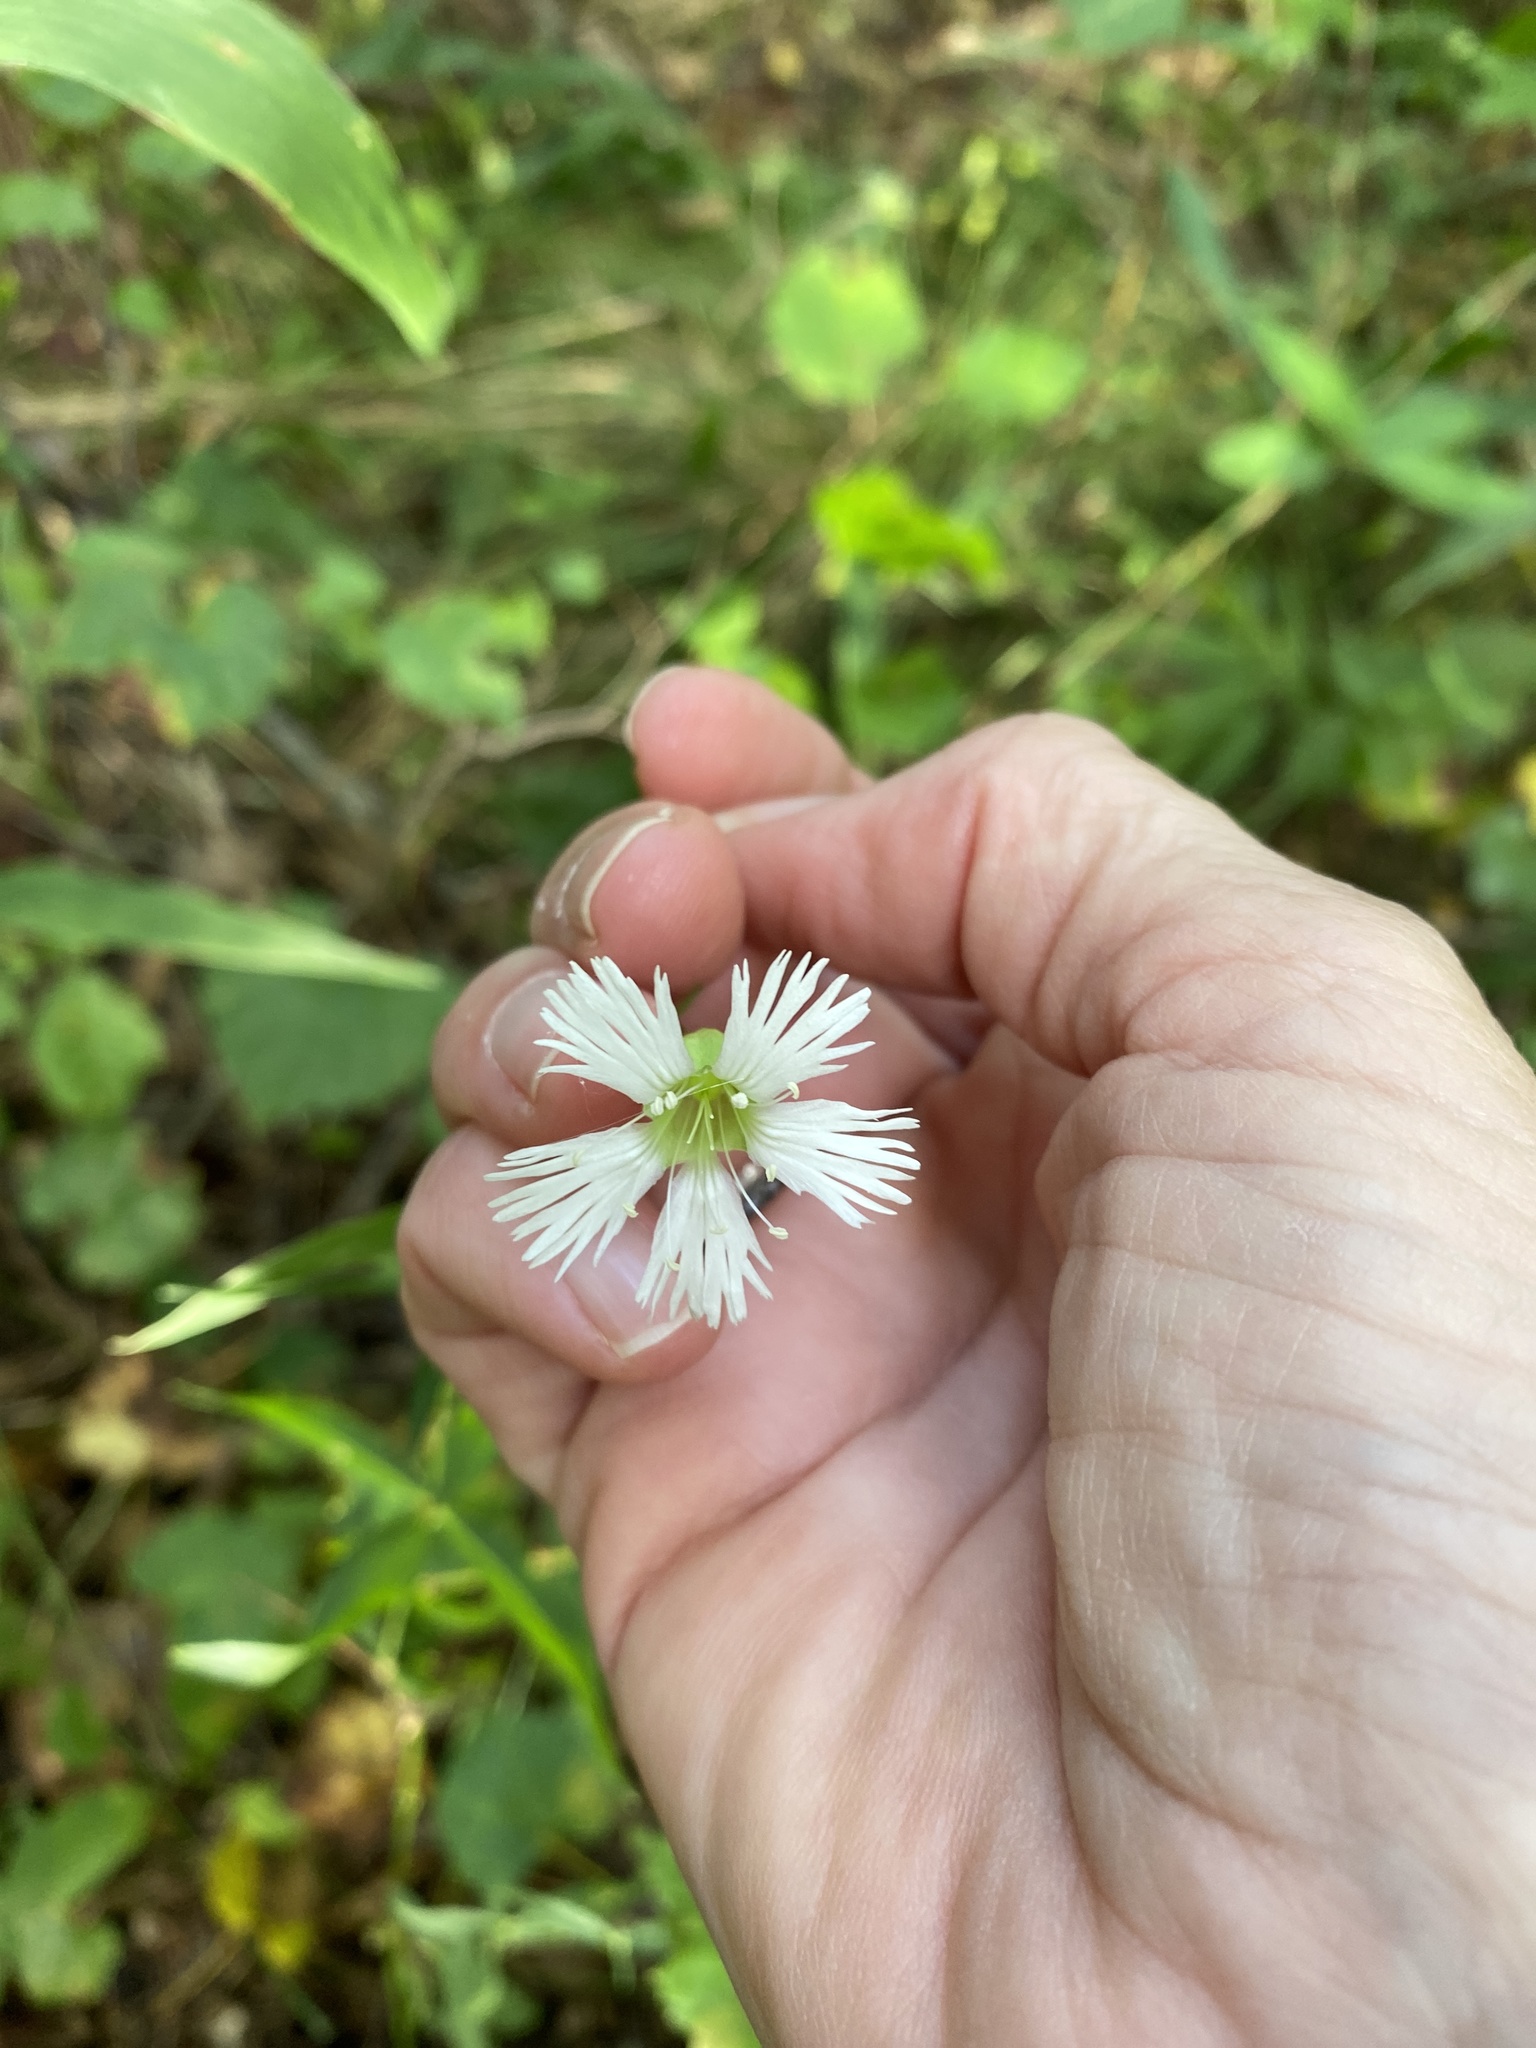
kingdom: Plantae
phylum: Tracheophyta
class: Magnoliopsida
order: Caryophyllales
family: Caryophyllaceae
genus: Silene
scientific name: Silene stellata
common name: Starry campion
